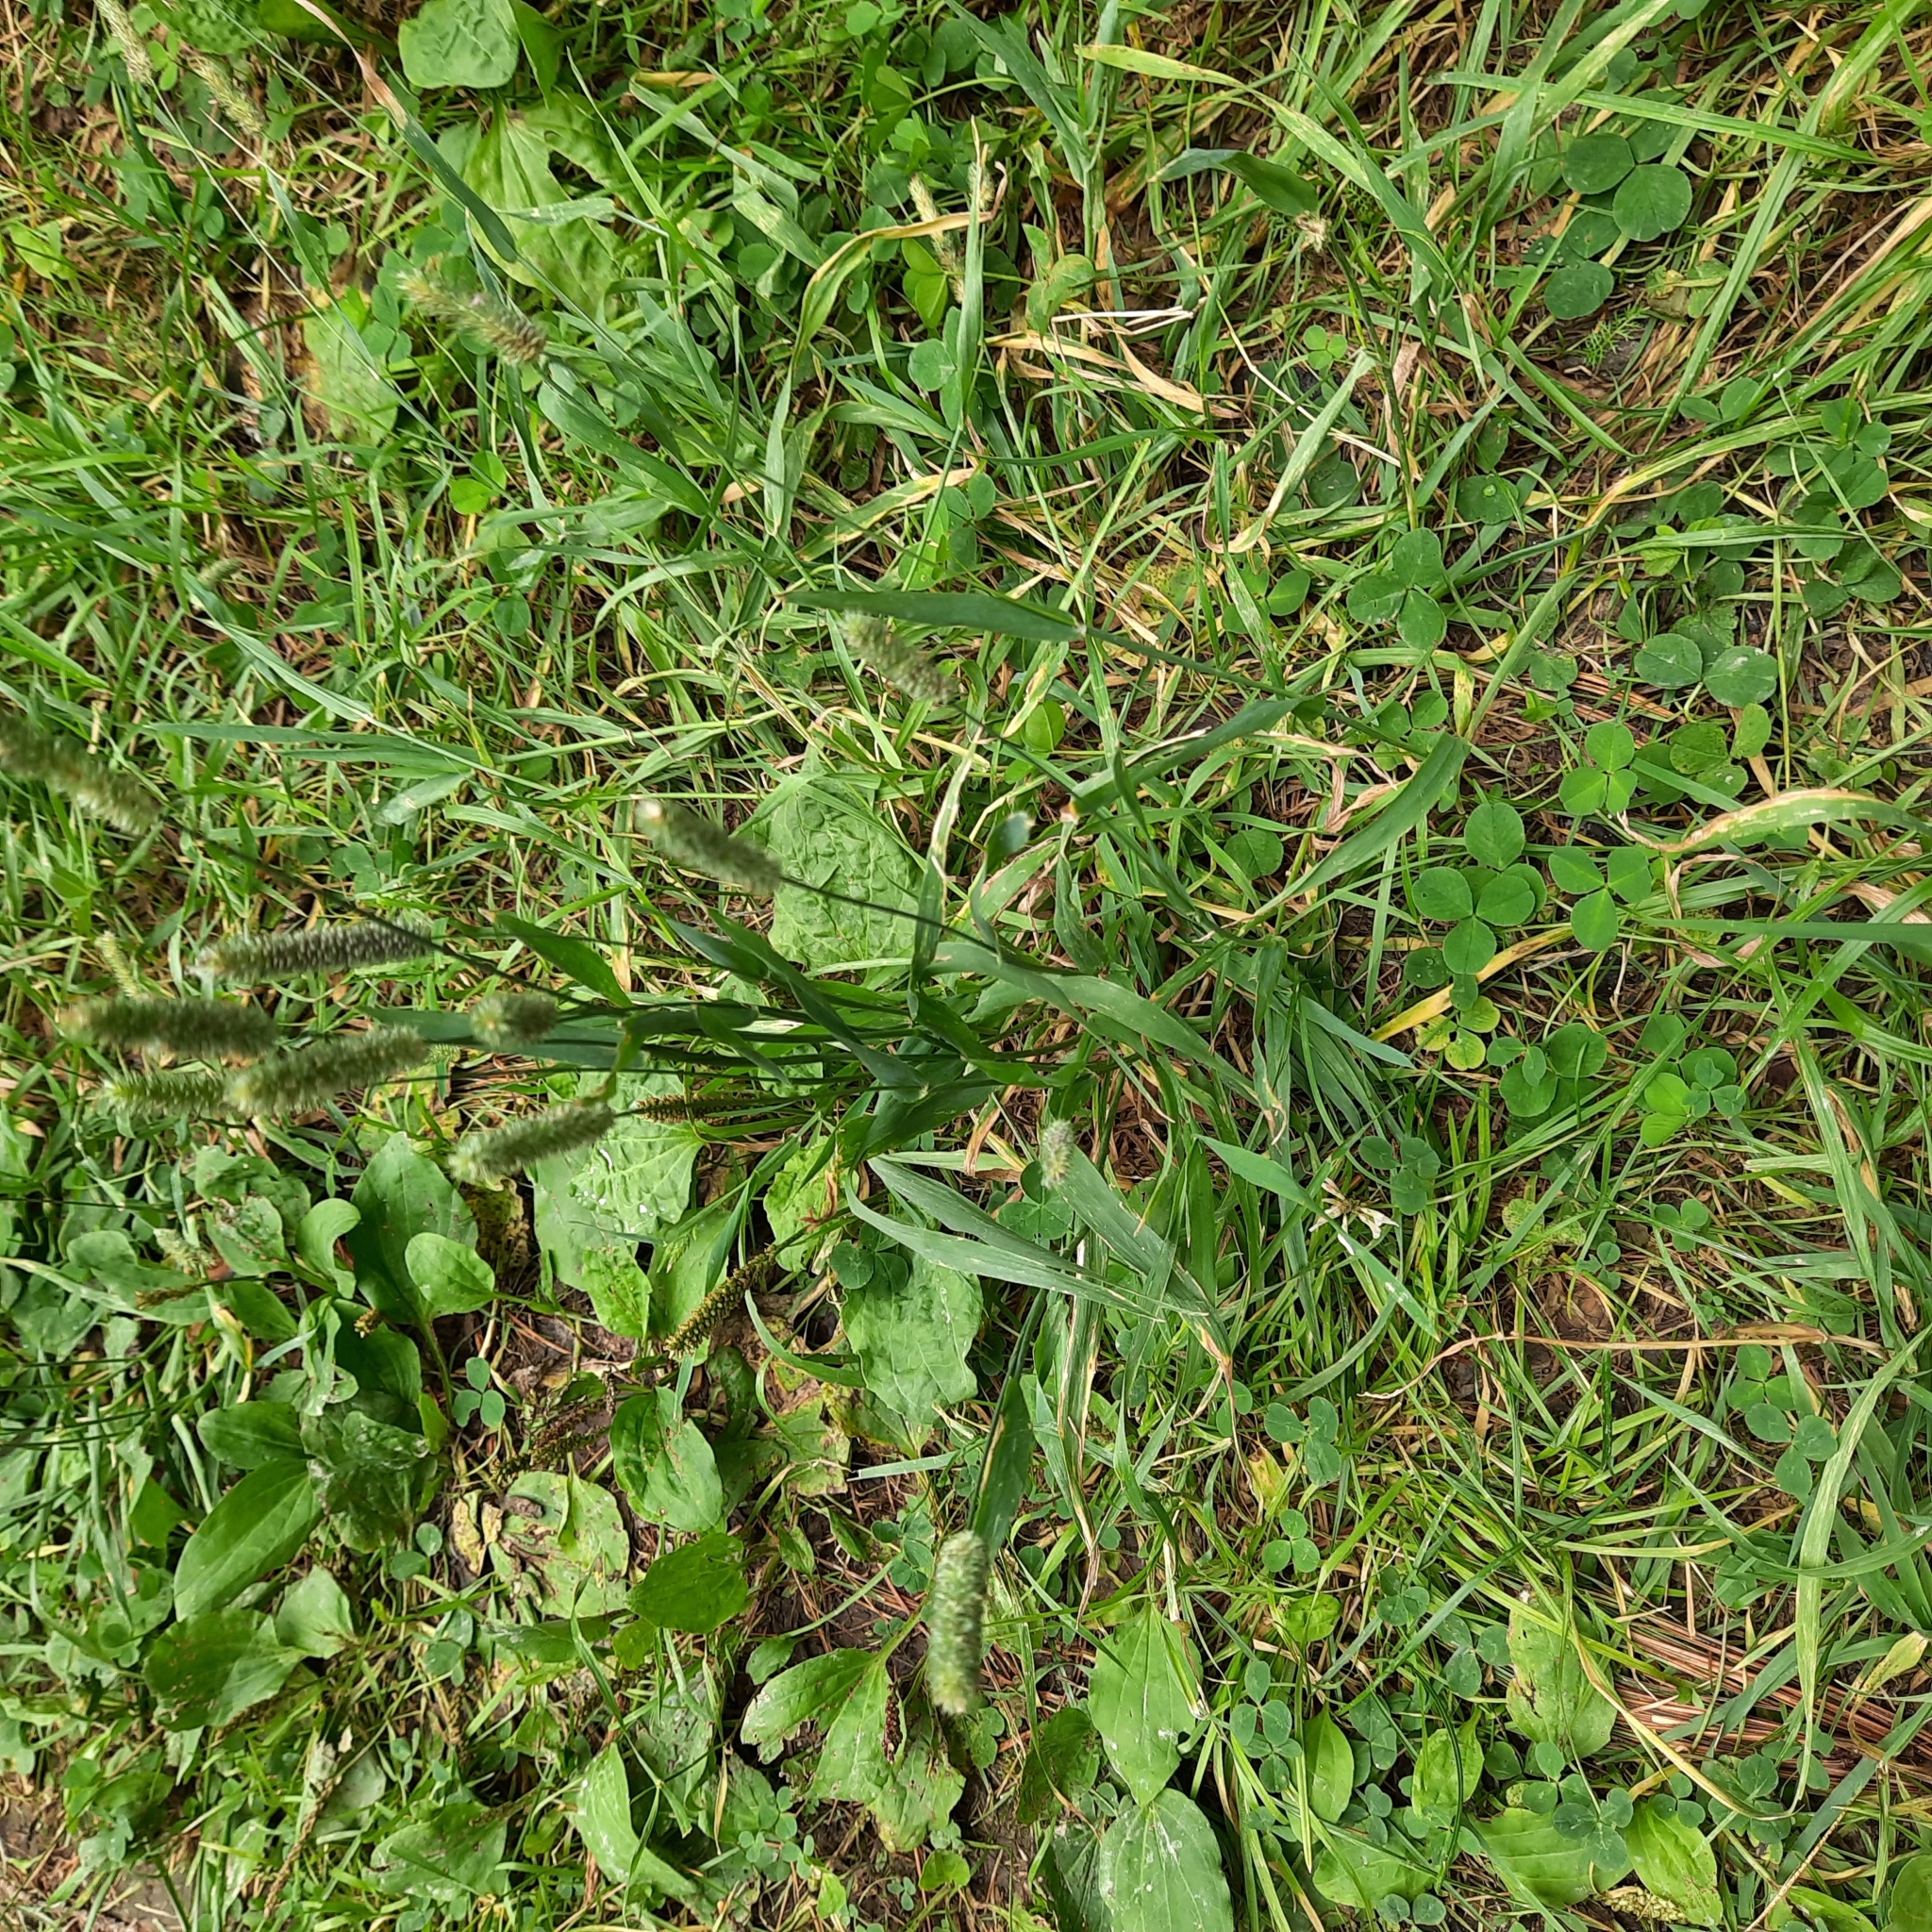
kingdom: Plantae
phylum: Tracheophyta
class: Liliopsida
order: Poales
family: Poaceae
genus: Phleum
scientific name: Phleum pratense
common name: Timothy grass
